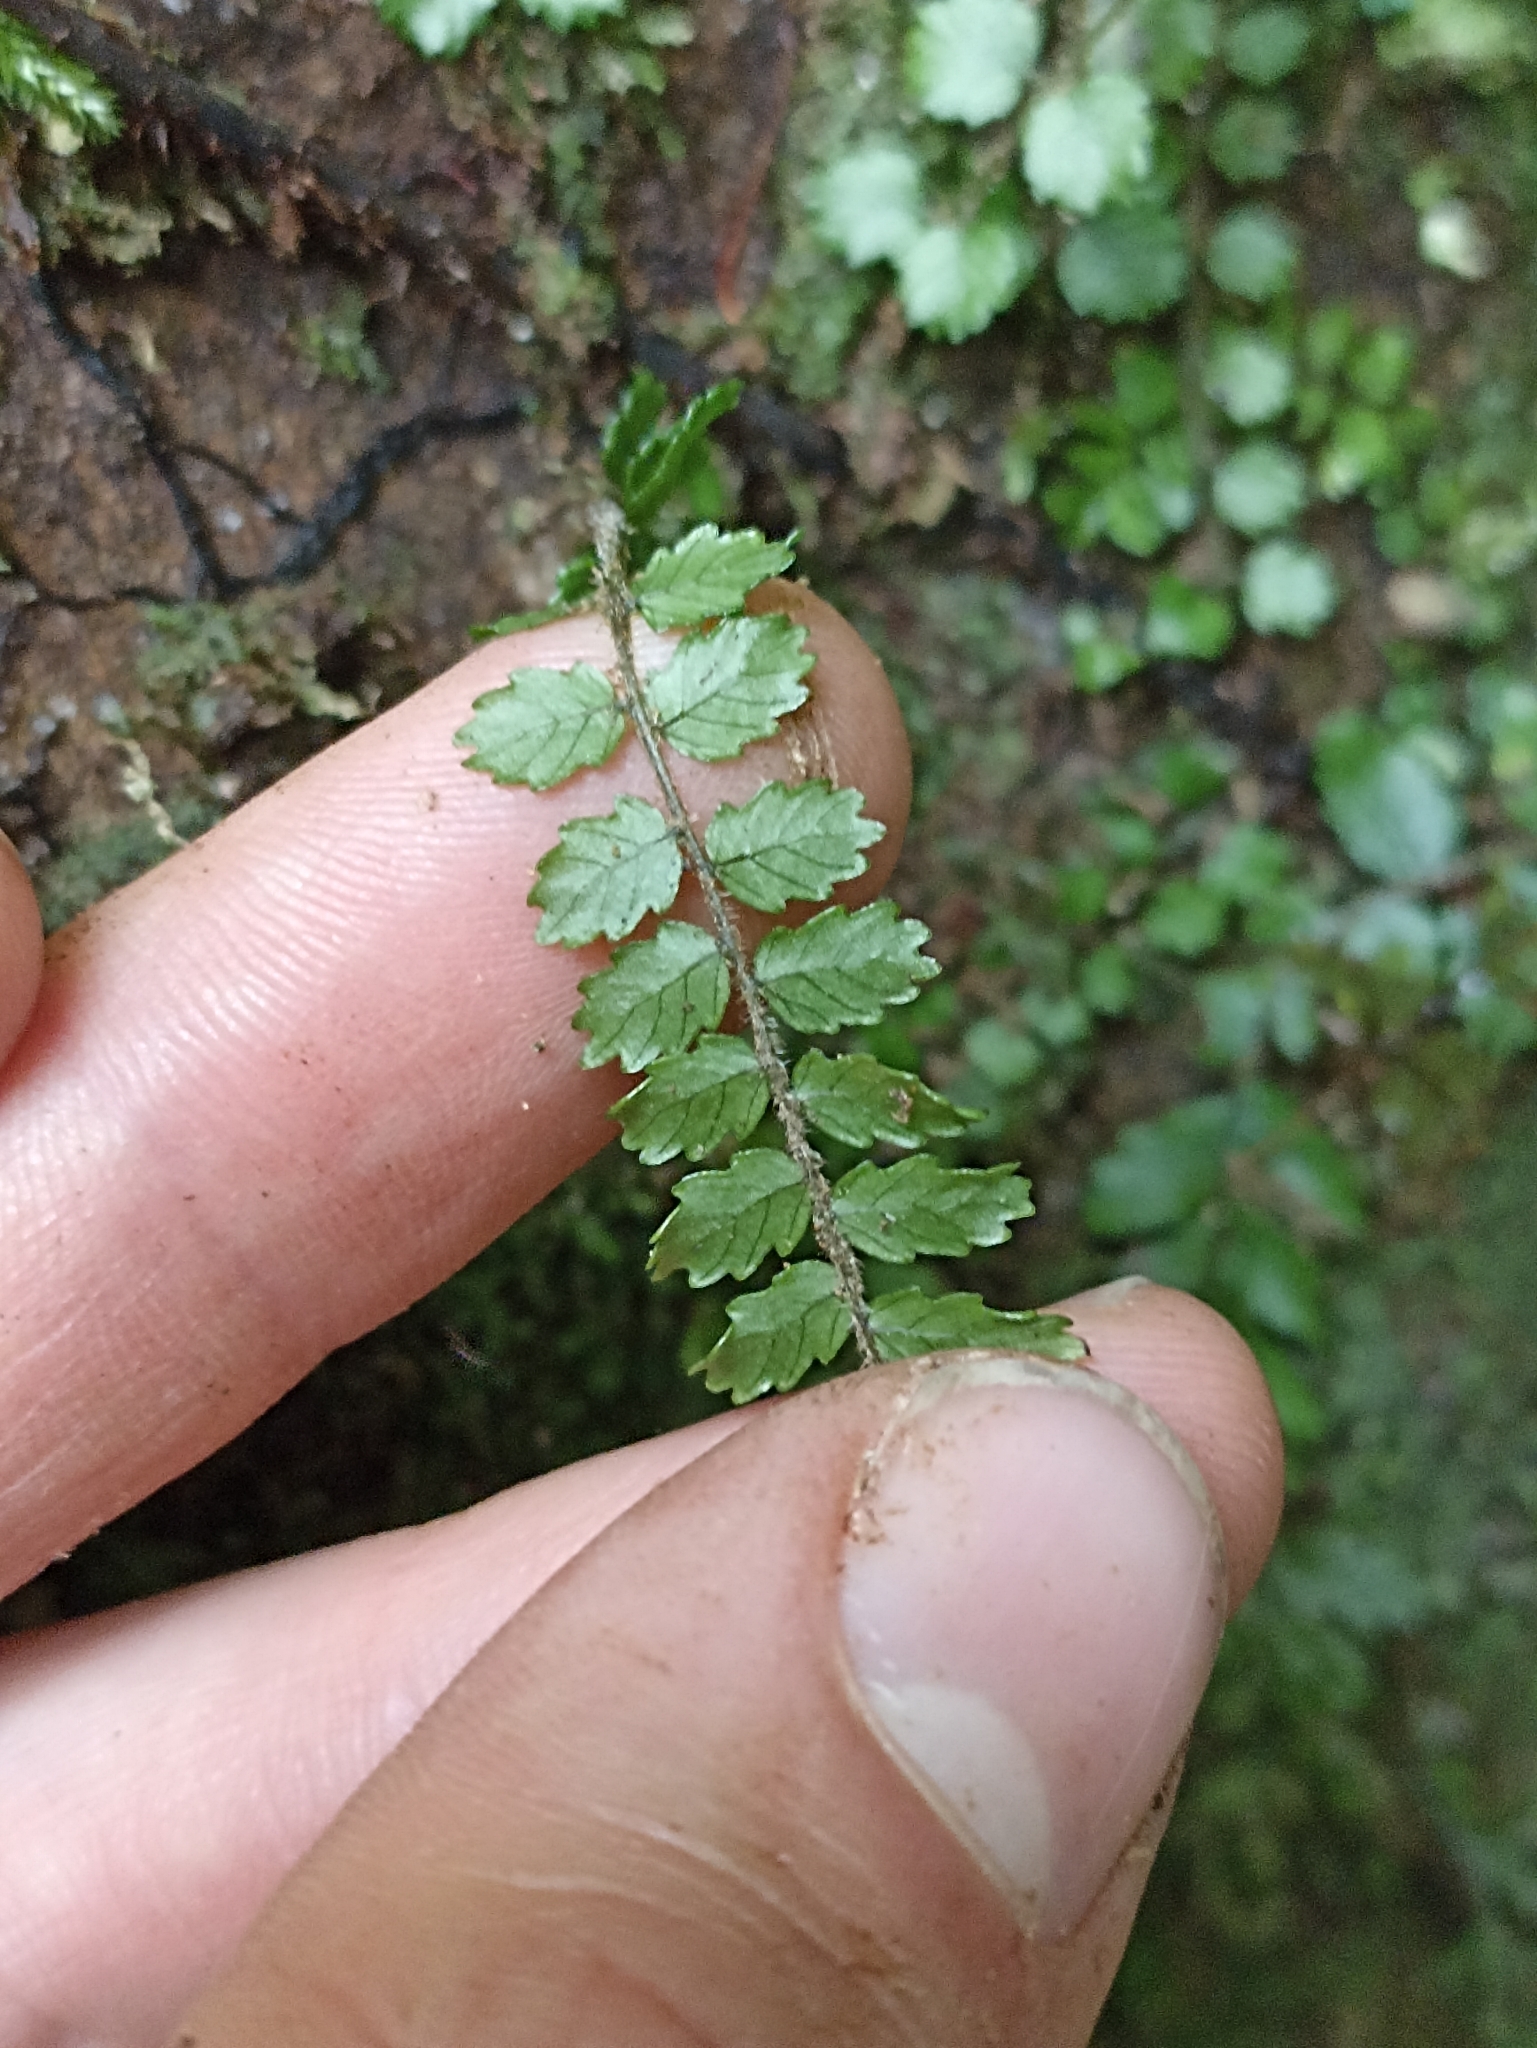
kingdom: Plantae
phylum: Tracheophyta
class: Polypodiopsida
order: Polypodiales
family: Blechnaceae
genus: Icarus
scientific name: Icarus filiformis
